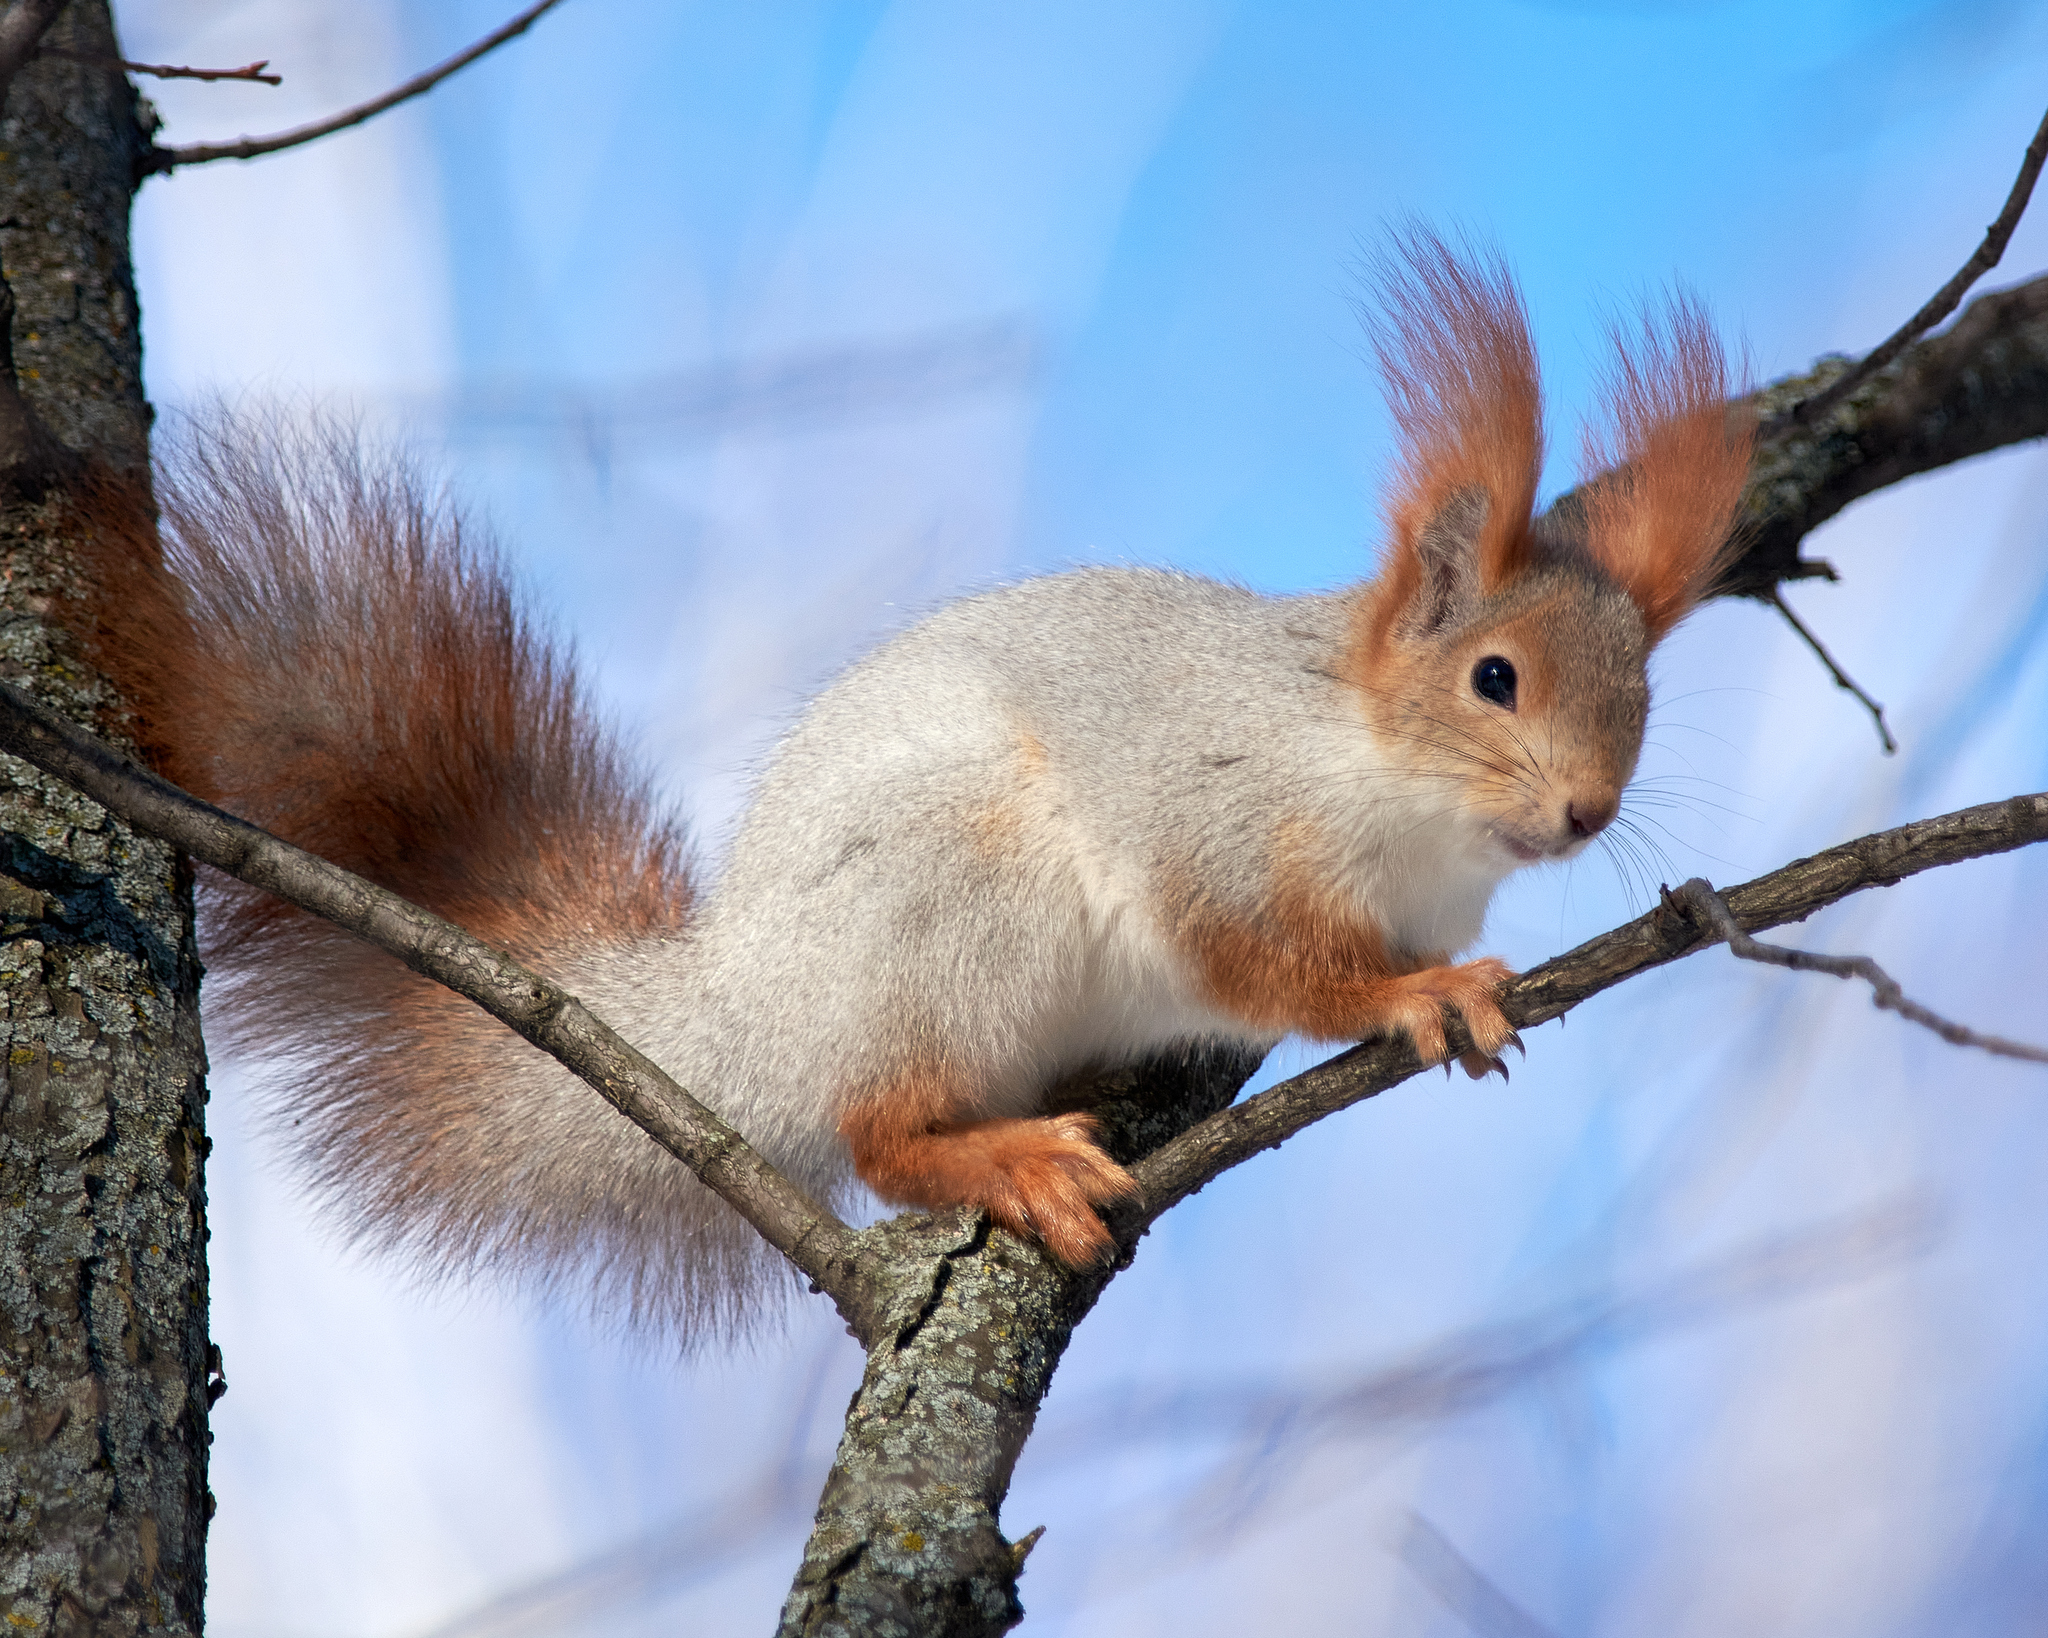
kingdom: Animalia
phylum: Chordata
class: Mammalia
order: Rodentia
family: Sciuridae
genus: Sciurus
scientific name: Sciurus vulgaris
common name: Eurasian red squirrel
